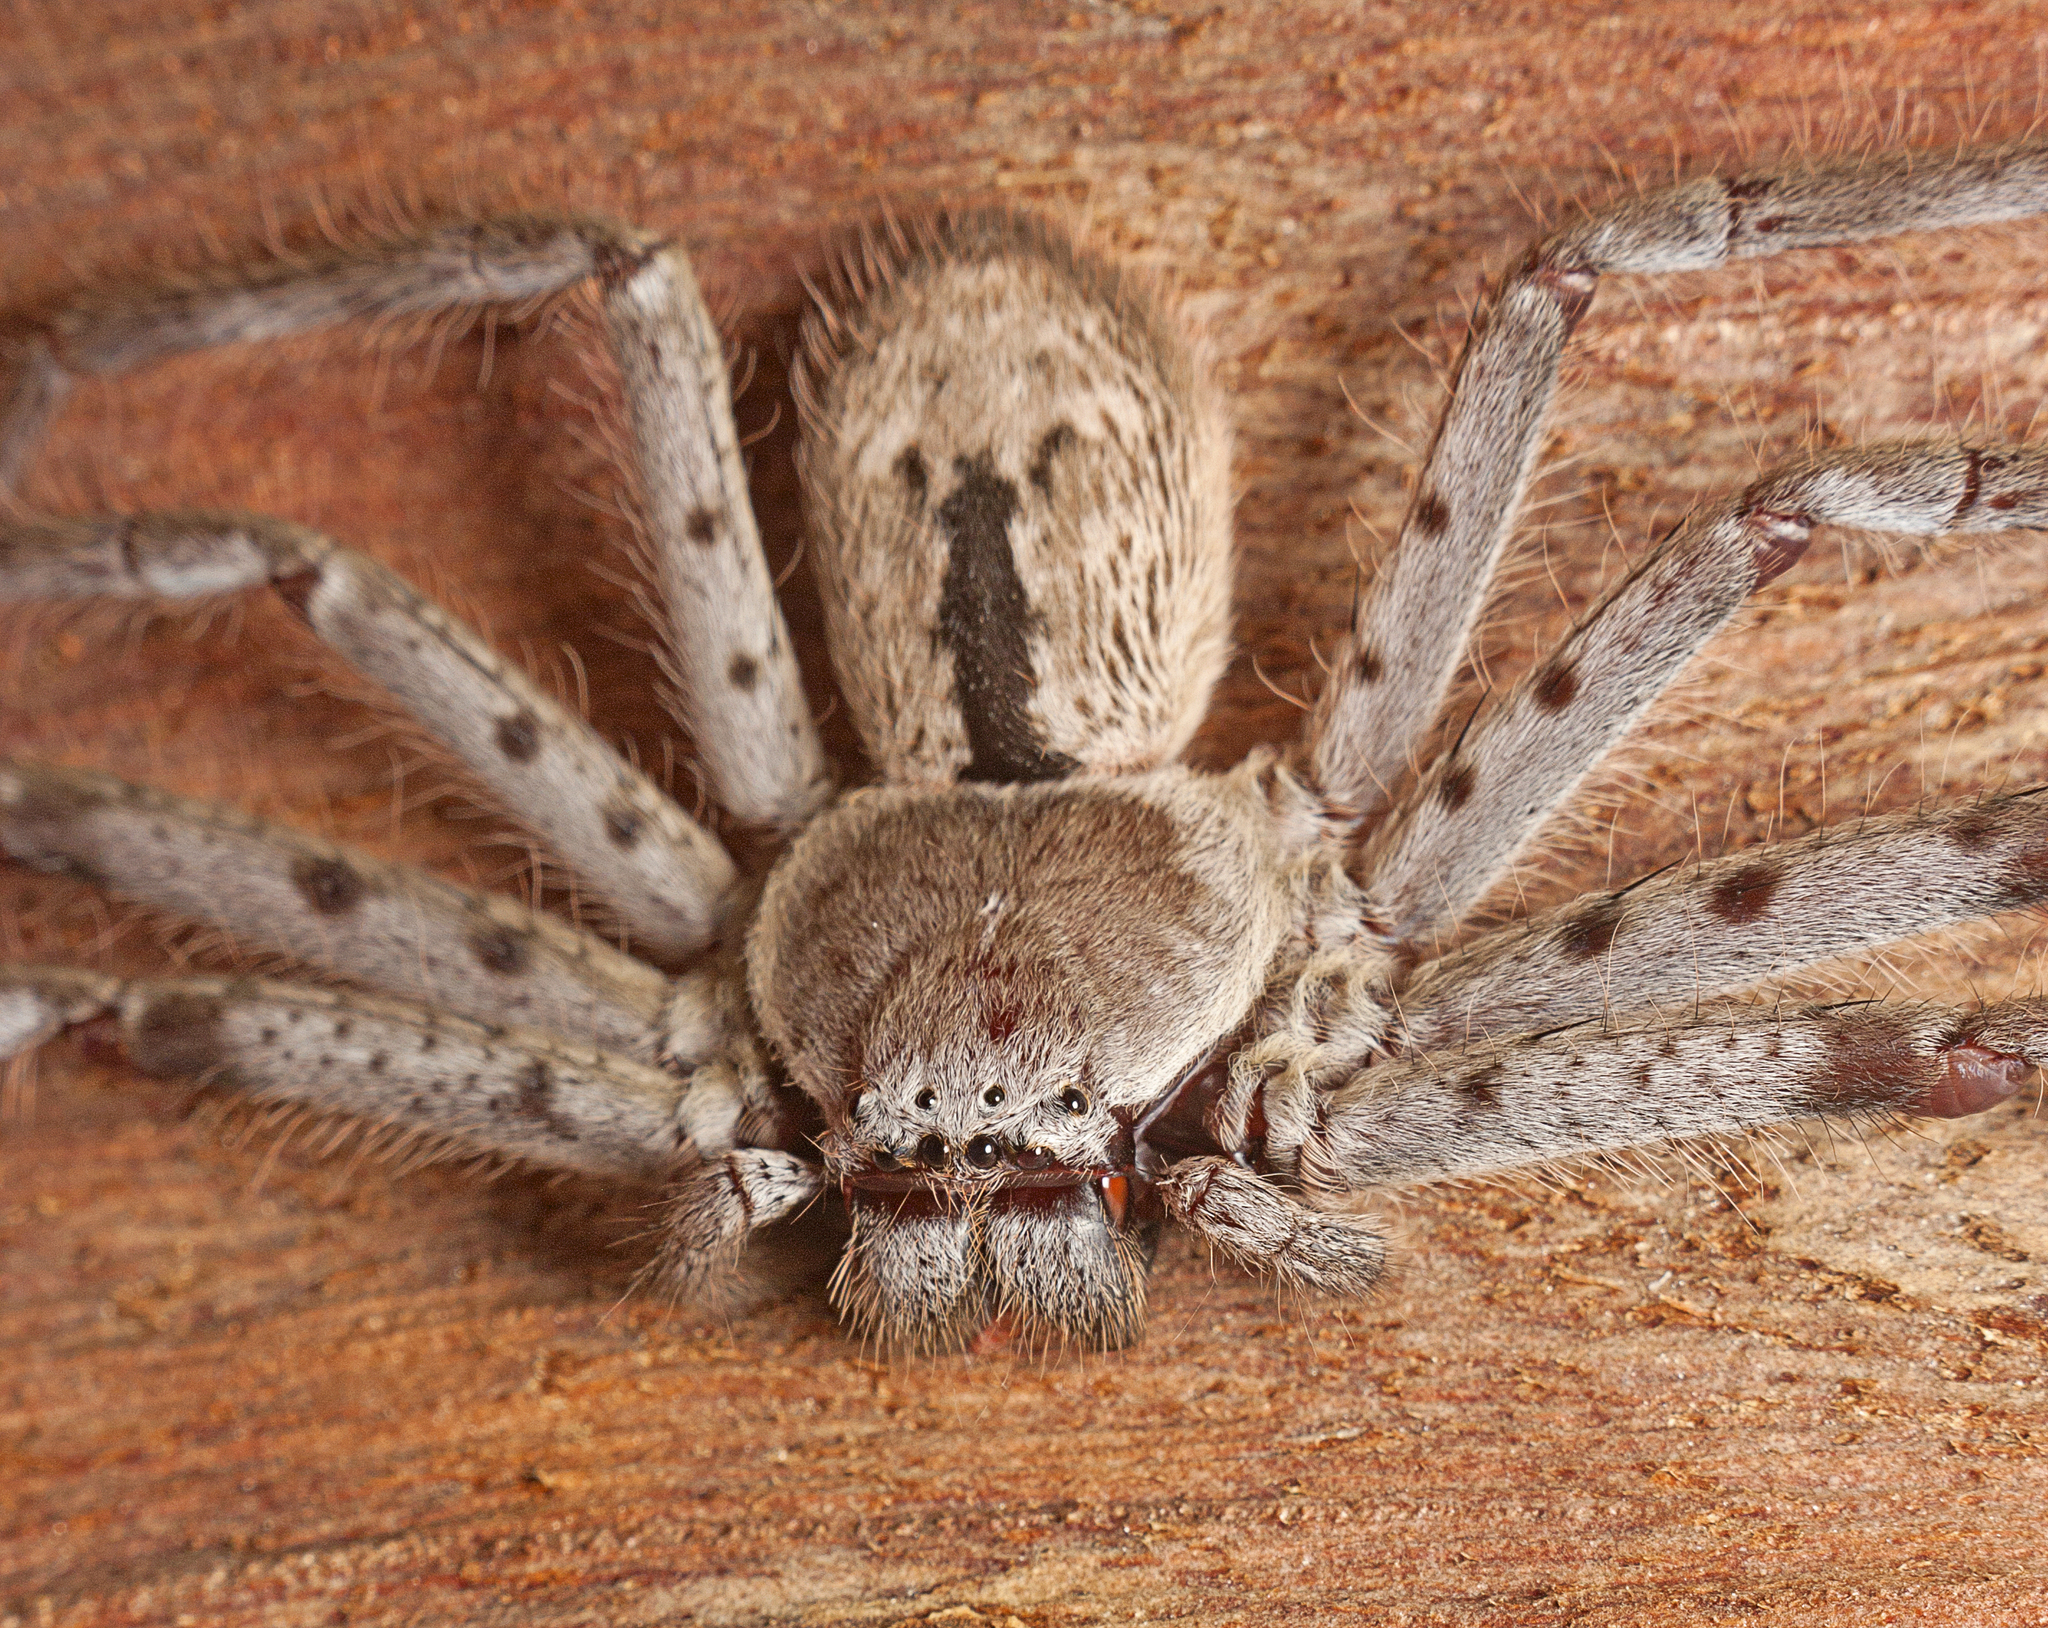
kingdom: Animalia
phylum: Arthropoda
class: Arachnida
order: Araneae
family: Sparassidae
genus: Holconia
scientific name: Holconia immanis
